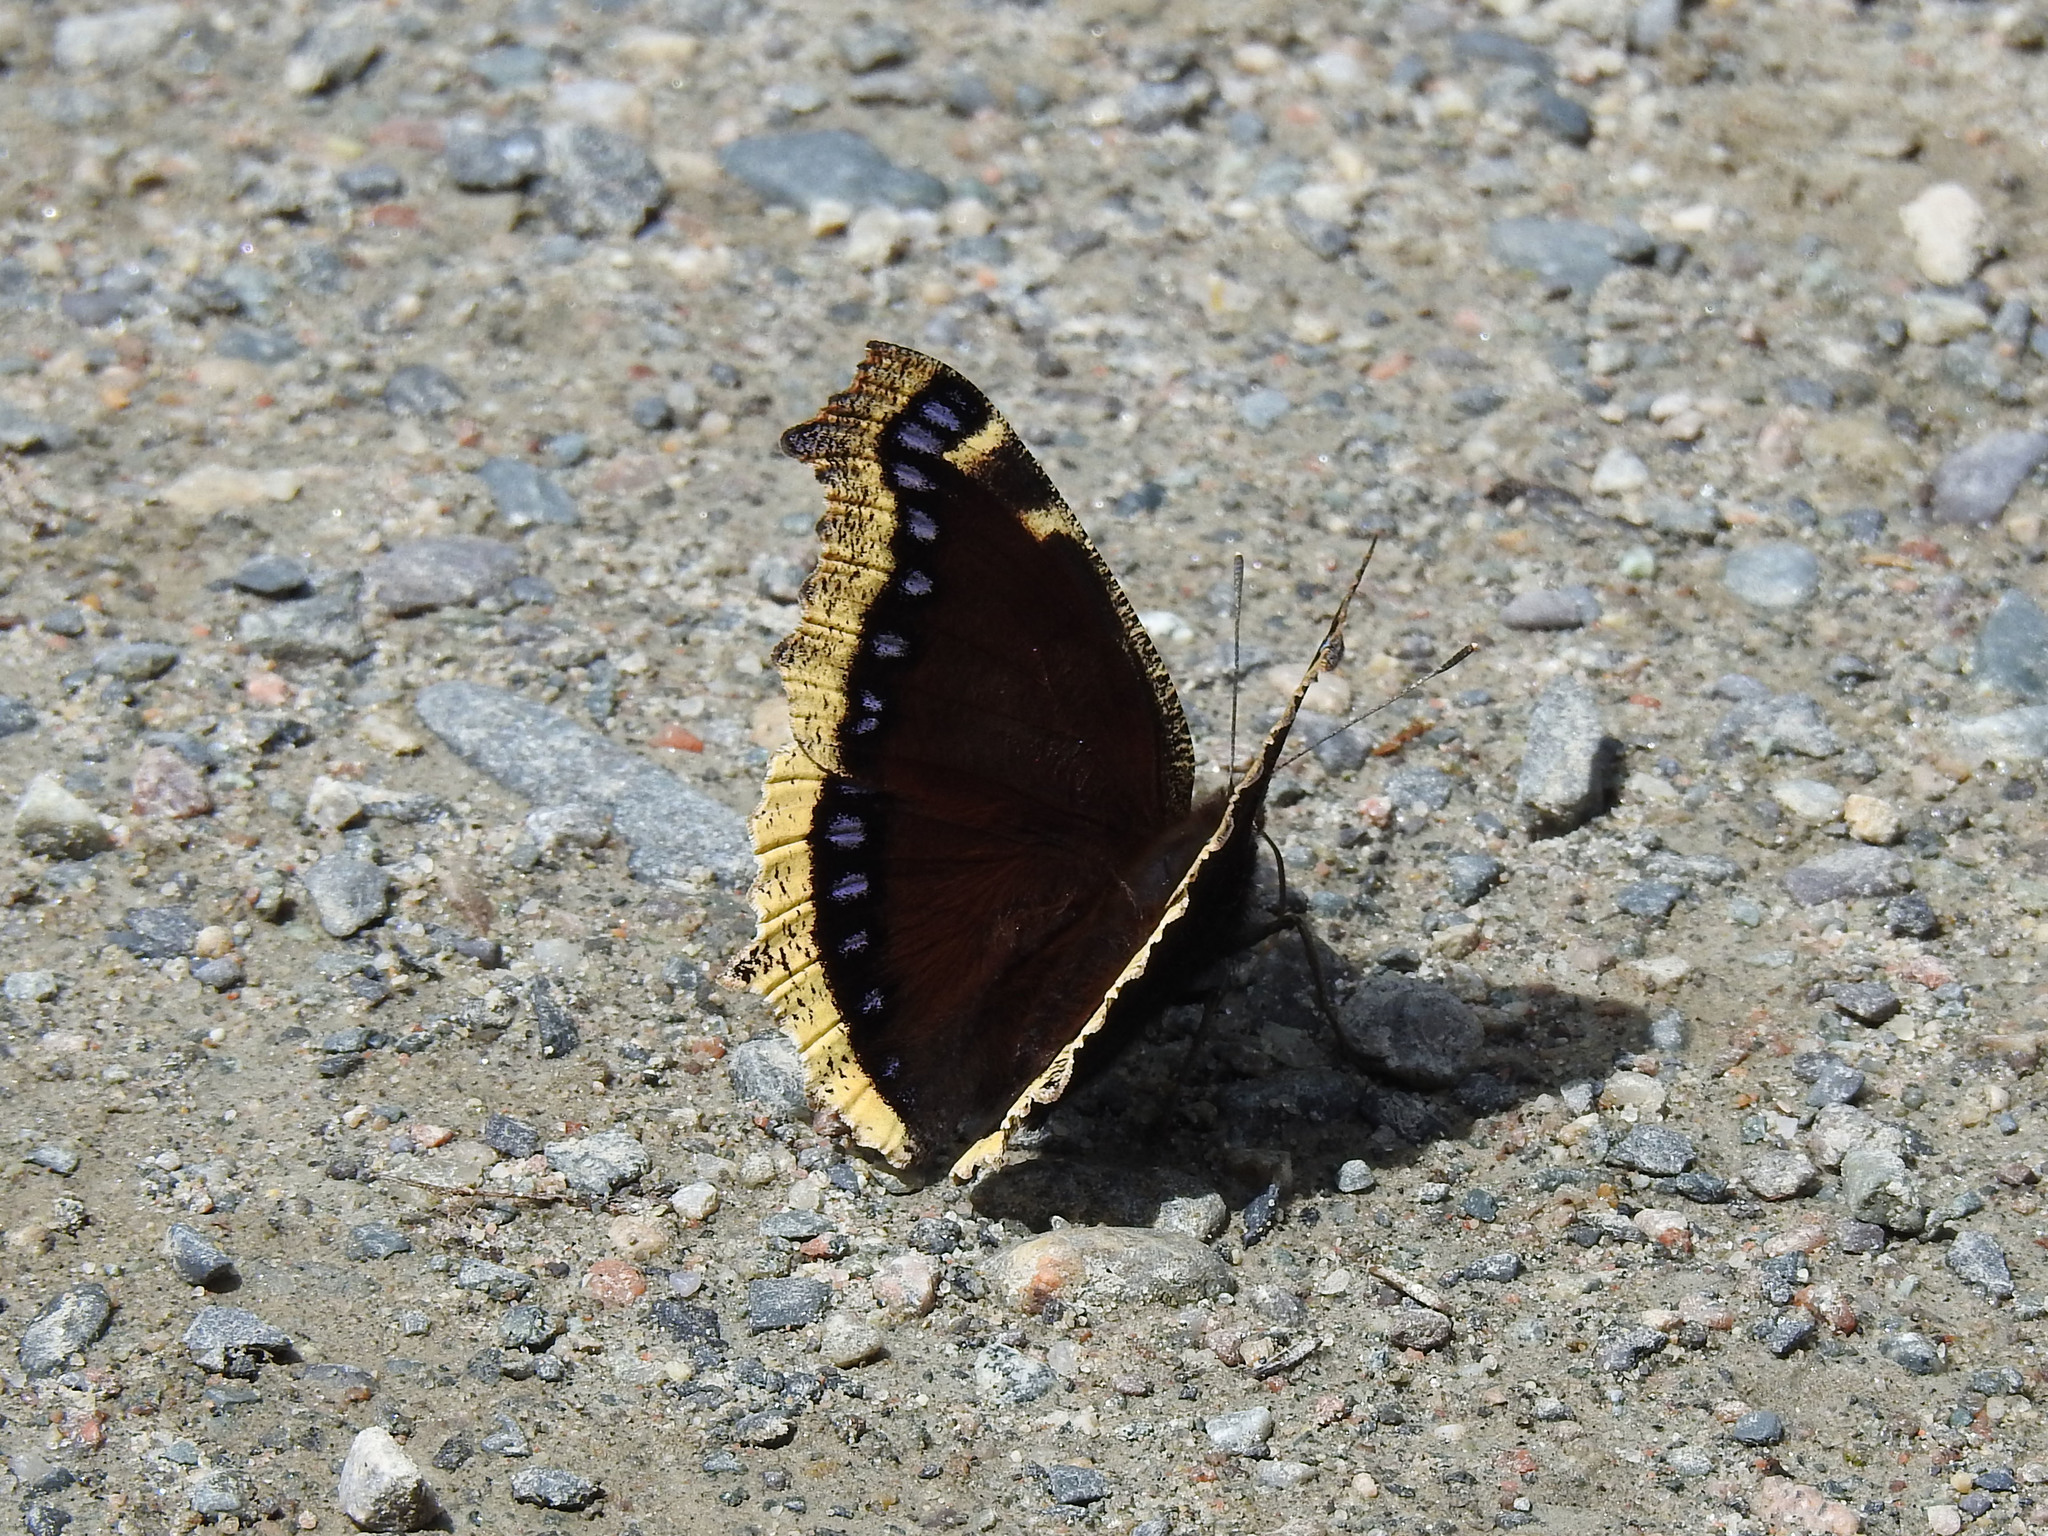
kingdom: Animalia
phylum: Arthropoda
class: Insecta
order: Lepidoptera
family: Nymphalidae
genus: Nymphalis
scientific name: Nymphalis antiopa
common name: Camberwell beauty
